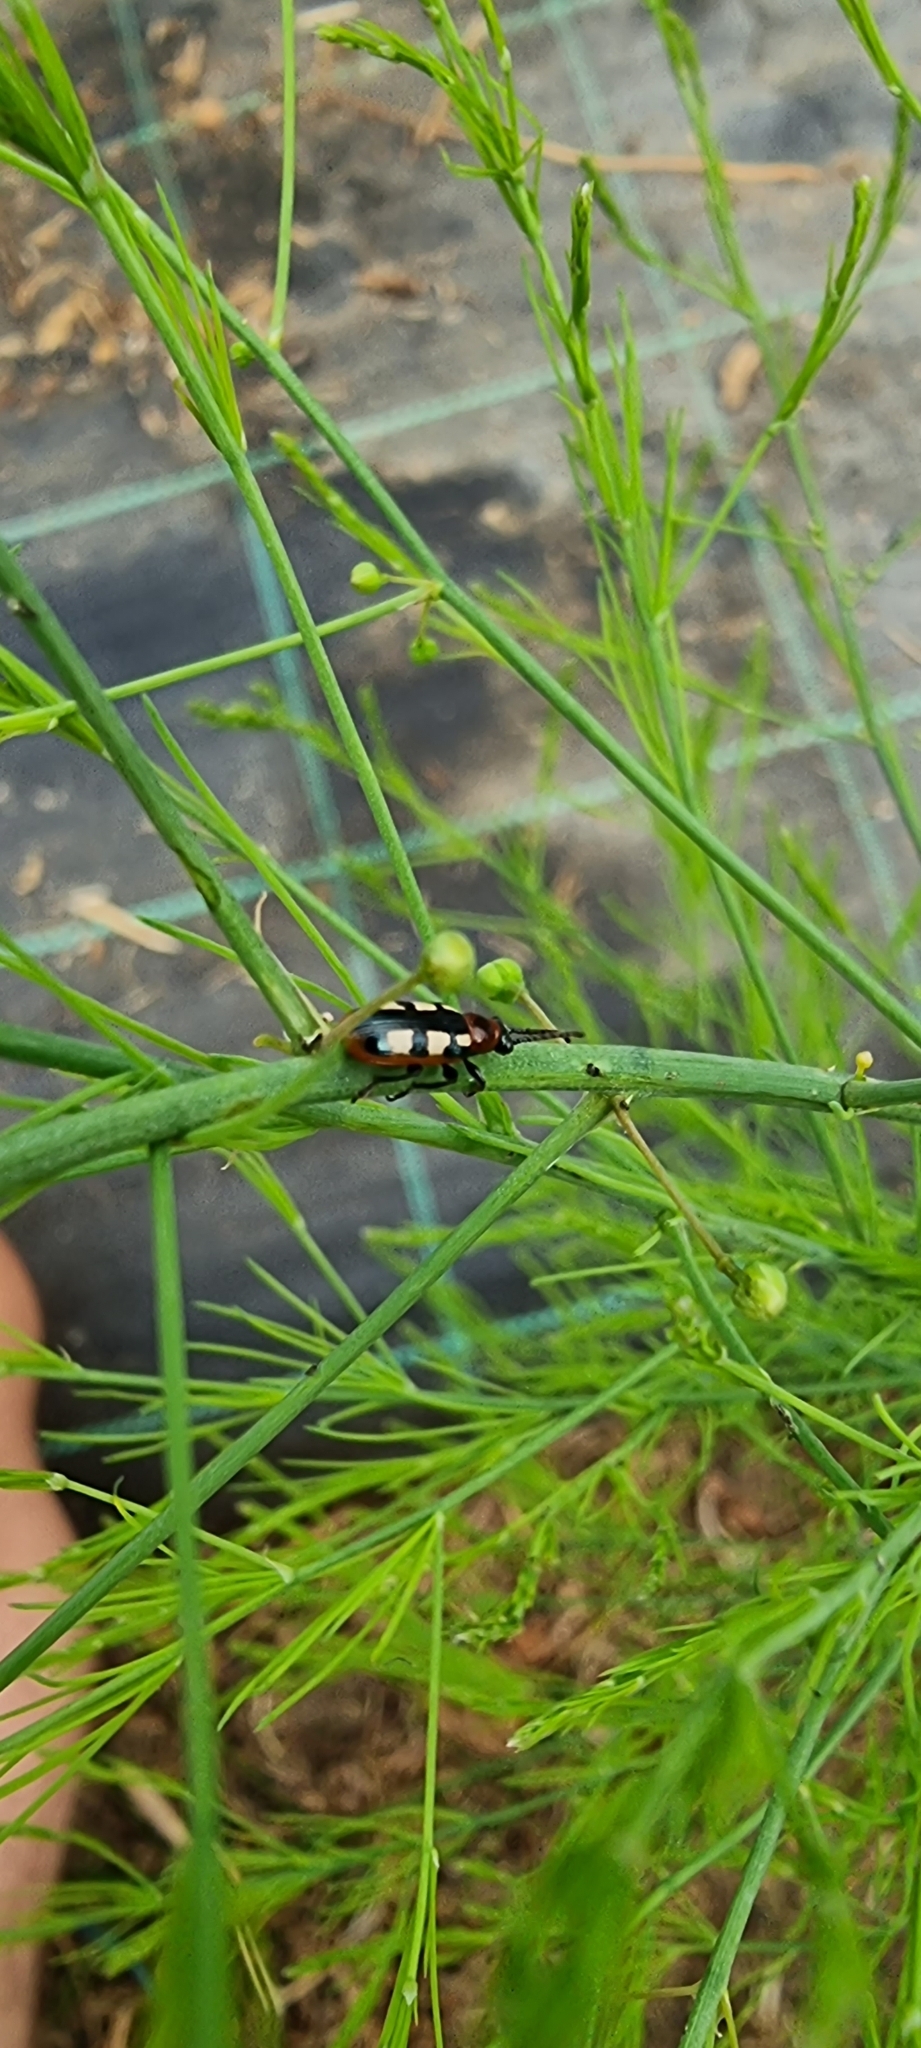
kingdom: Animalia
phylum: Arthropoda
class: Insecta
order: Coleoptera
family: Chrysomelidae
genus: Crioceris
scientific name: Crioceris asparagi
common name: Asparagus beetle
